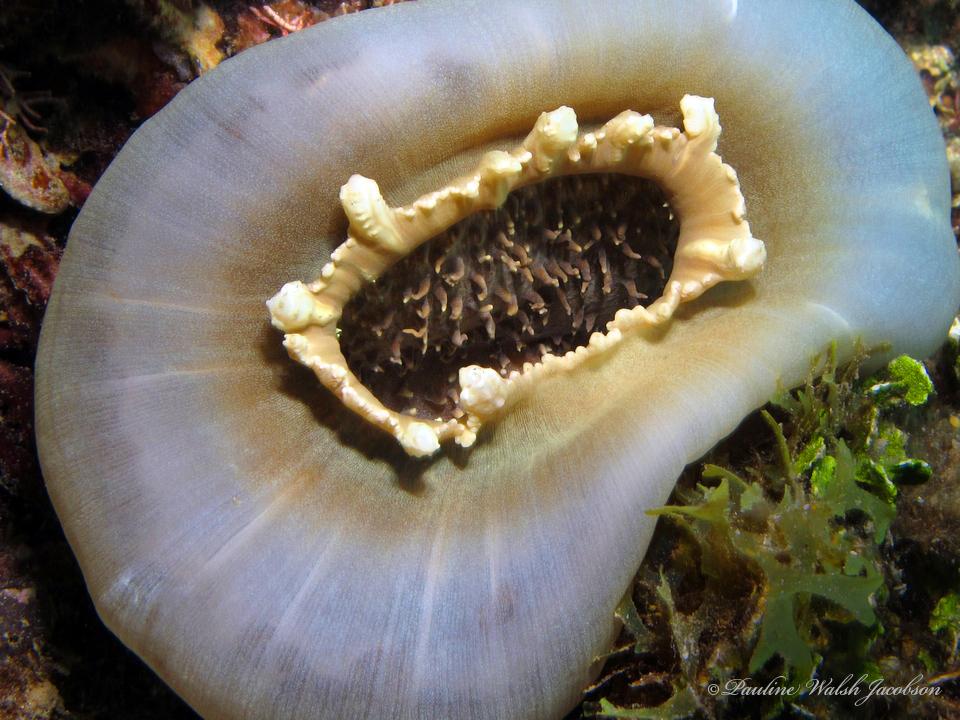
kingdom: Animalia
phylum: Cnidaria
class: Anthozoa
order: Corallimorpharia
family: Discosomidae
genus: Amplexidiscus
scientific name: Amplexidiscus fenestrafer
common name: Elephant ear anemone
